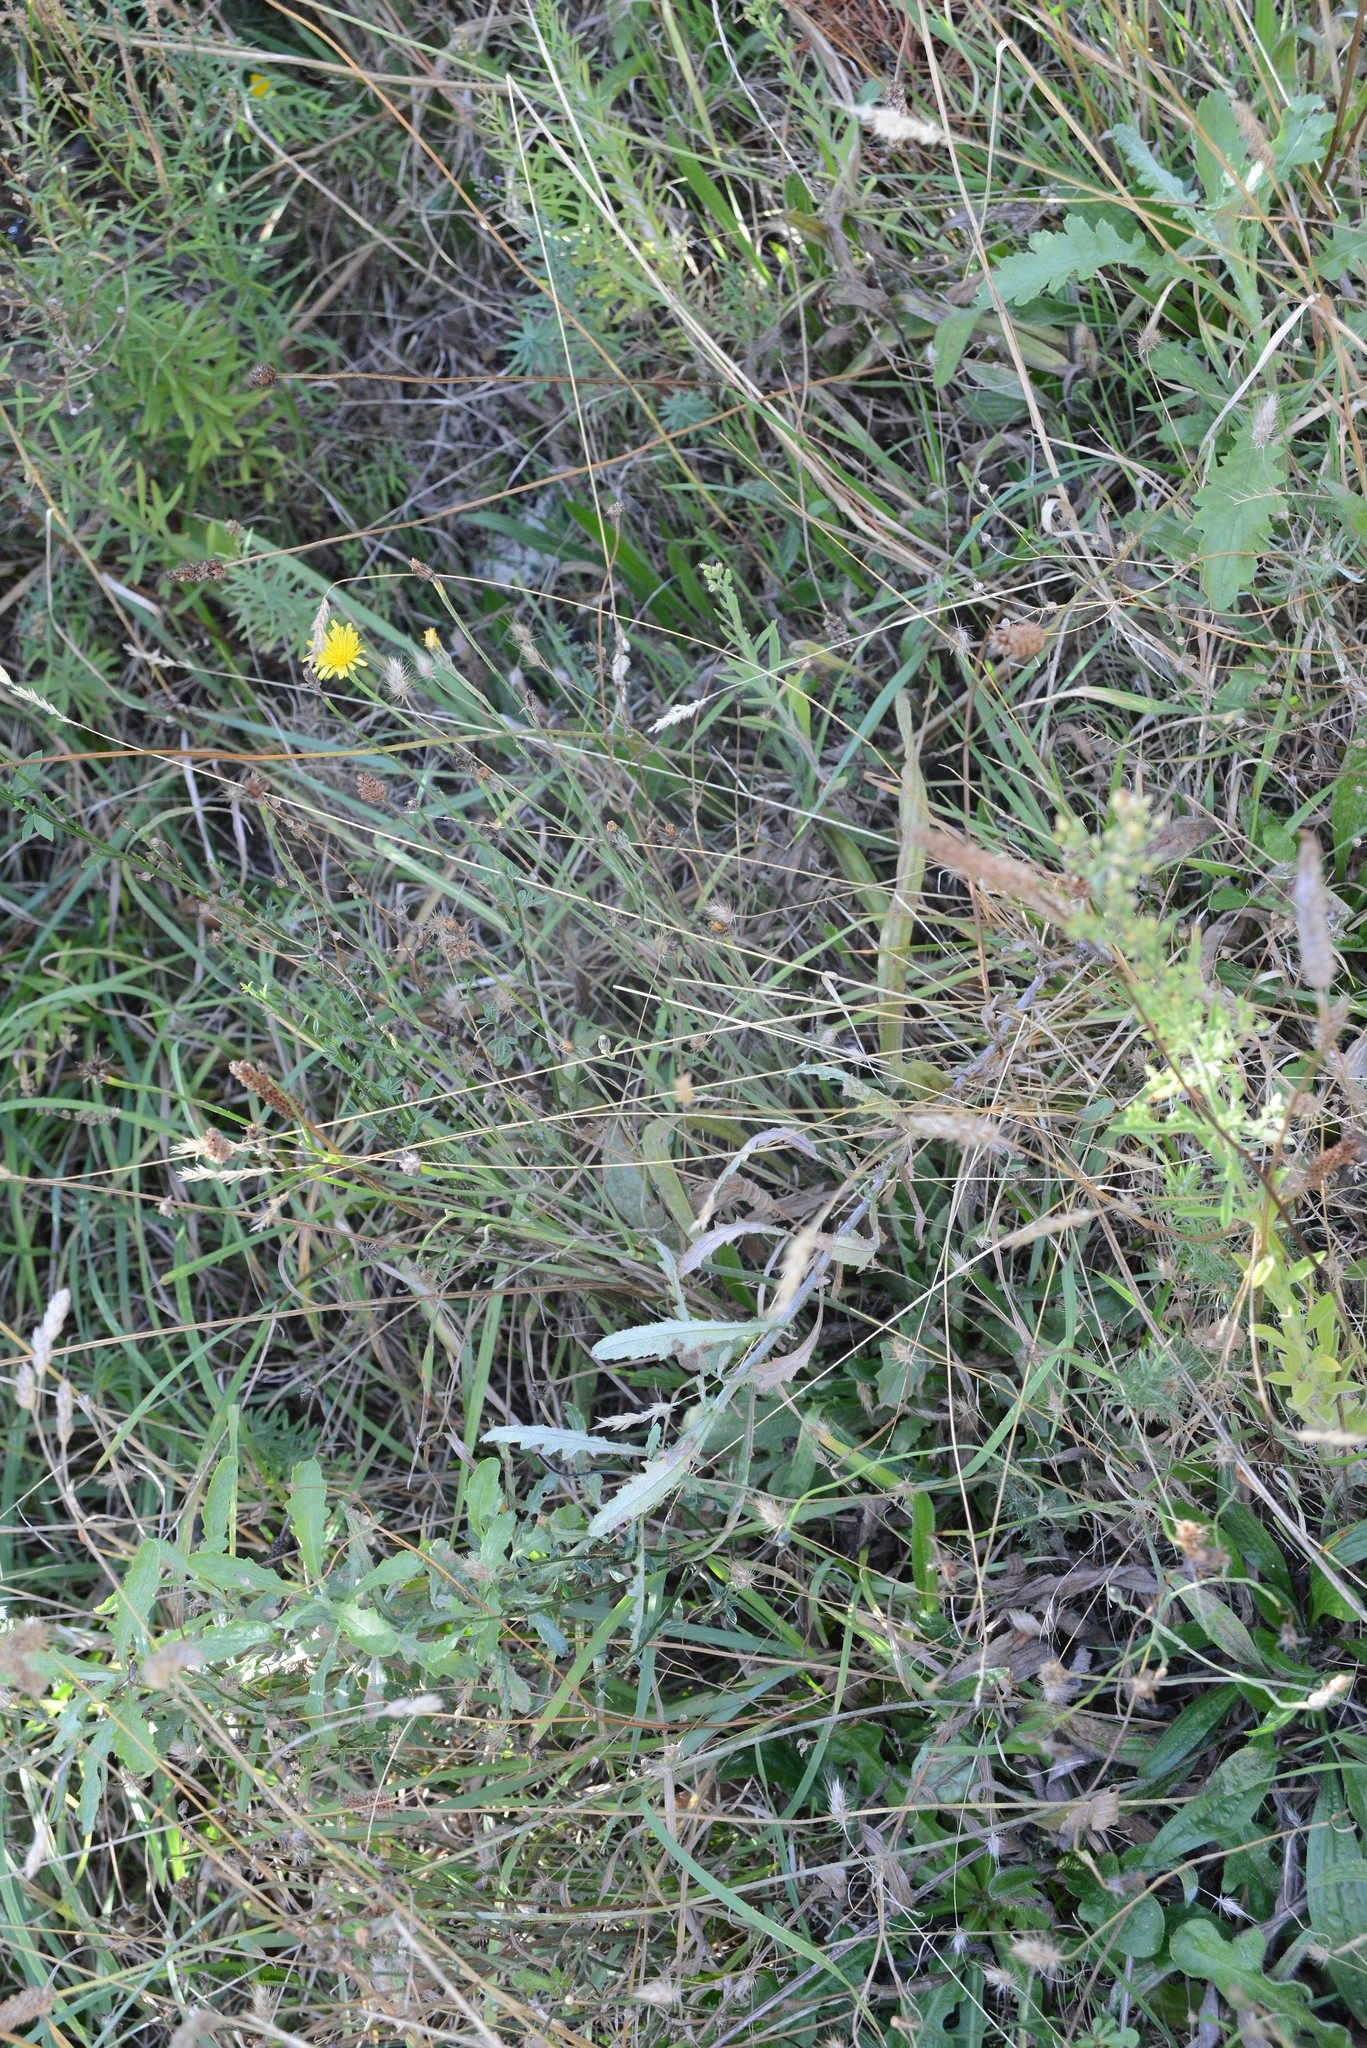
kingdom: Plantae
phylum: Tracheophyta
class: Magnoliopsida
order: Asterales
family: Asteraceae
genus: Senecio
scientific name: Senecio glomeratus
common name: Cutleaf burnweed
